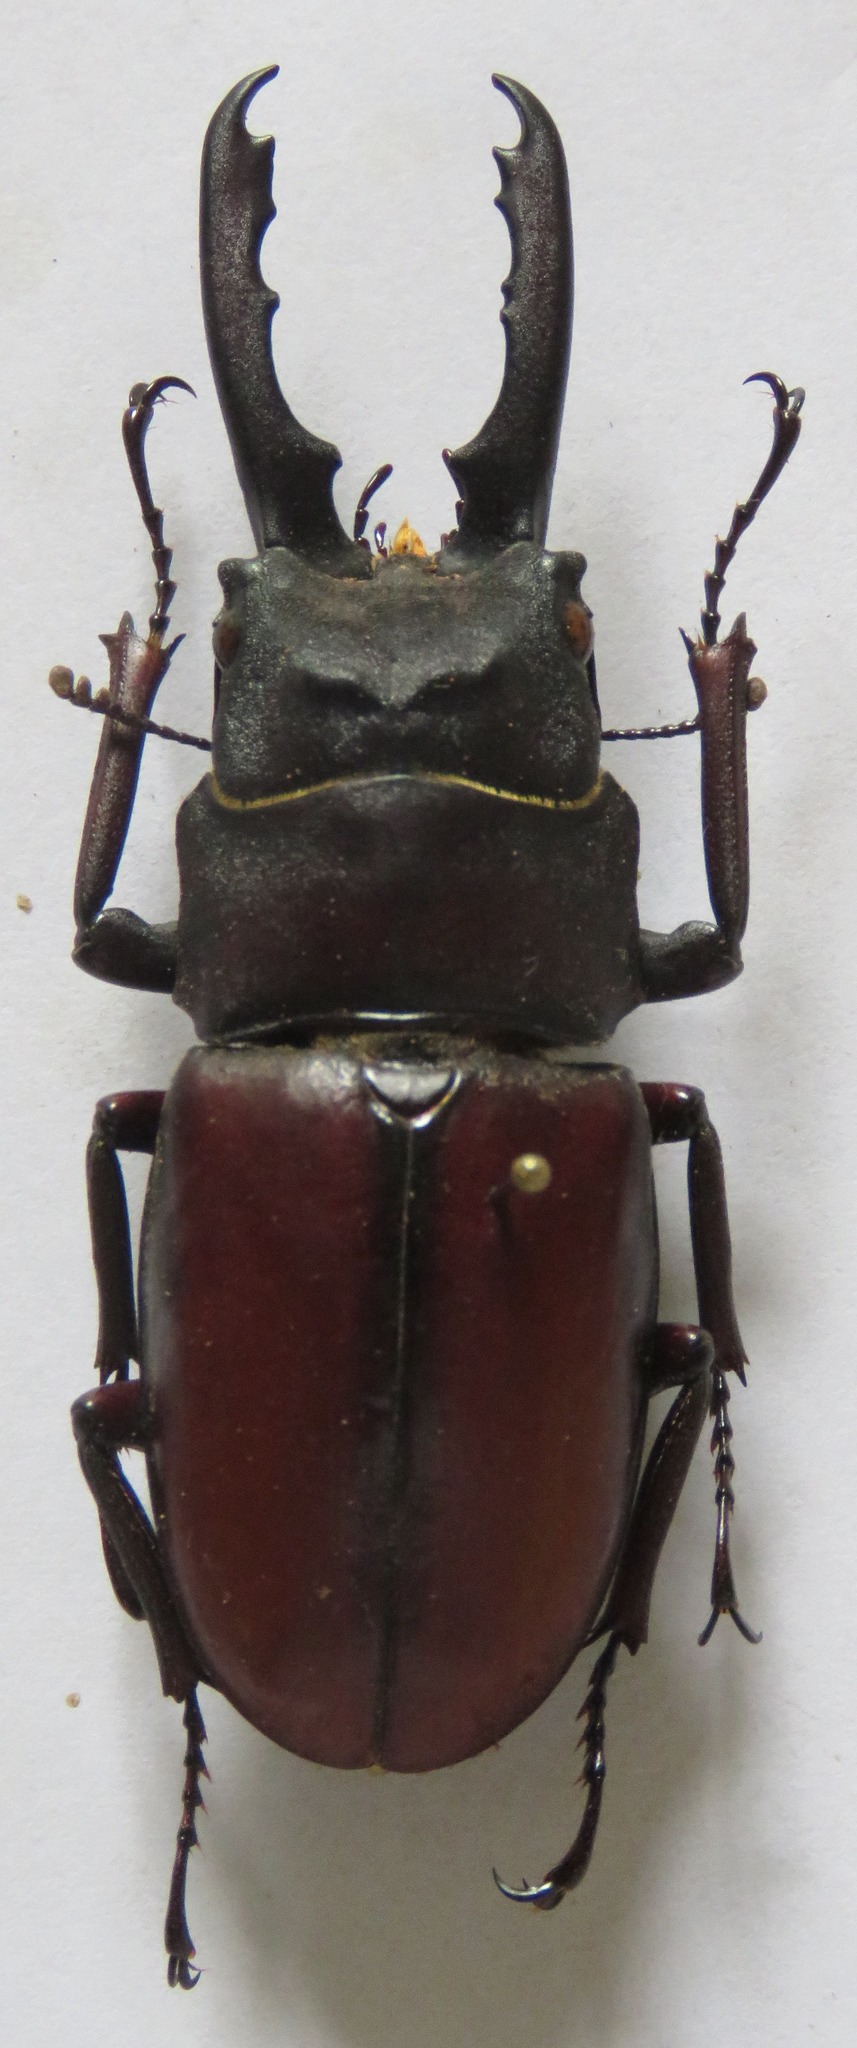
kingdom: Animalia
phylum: Arthropoda
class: Insecta
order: Coleoptera
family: Lucanidae
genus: Prosopocoilus
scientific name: Prosopocoilus myrmecoleon
